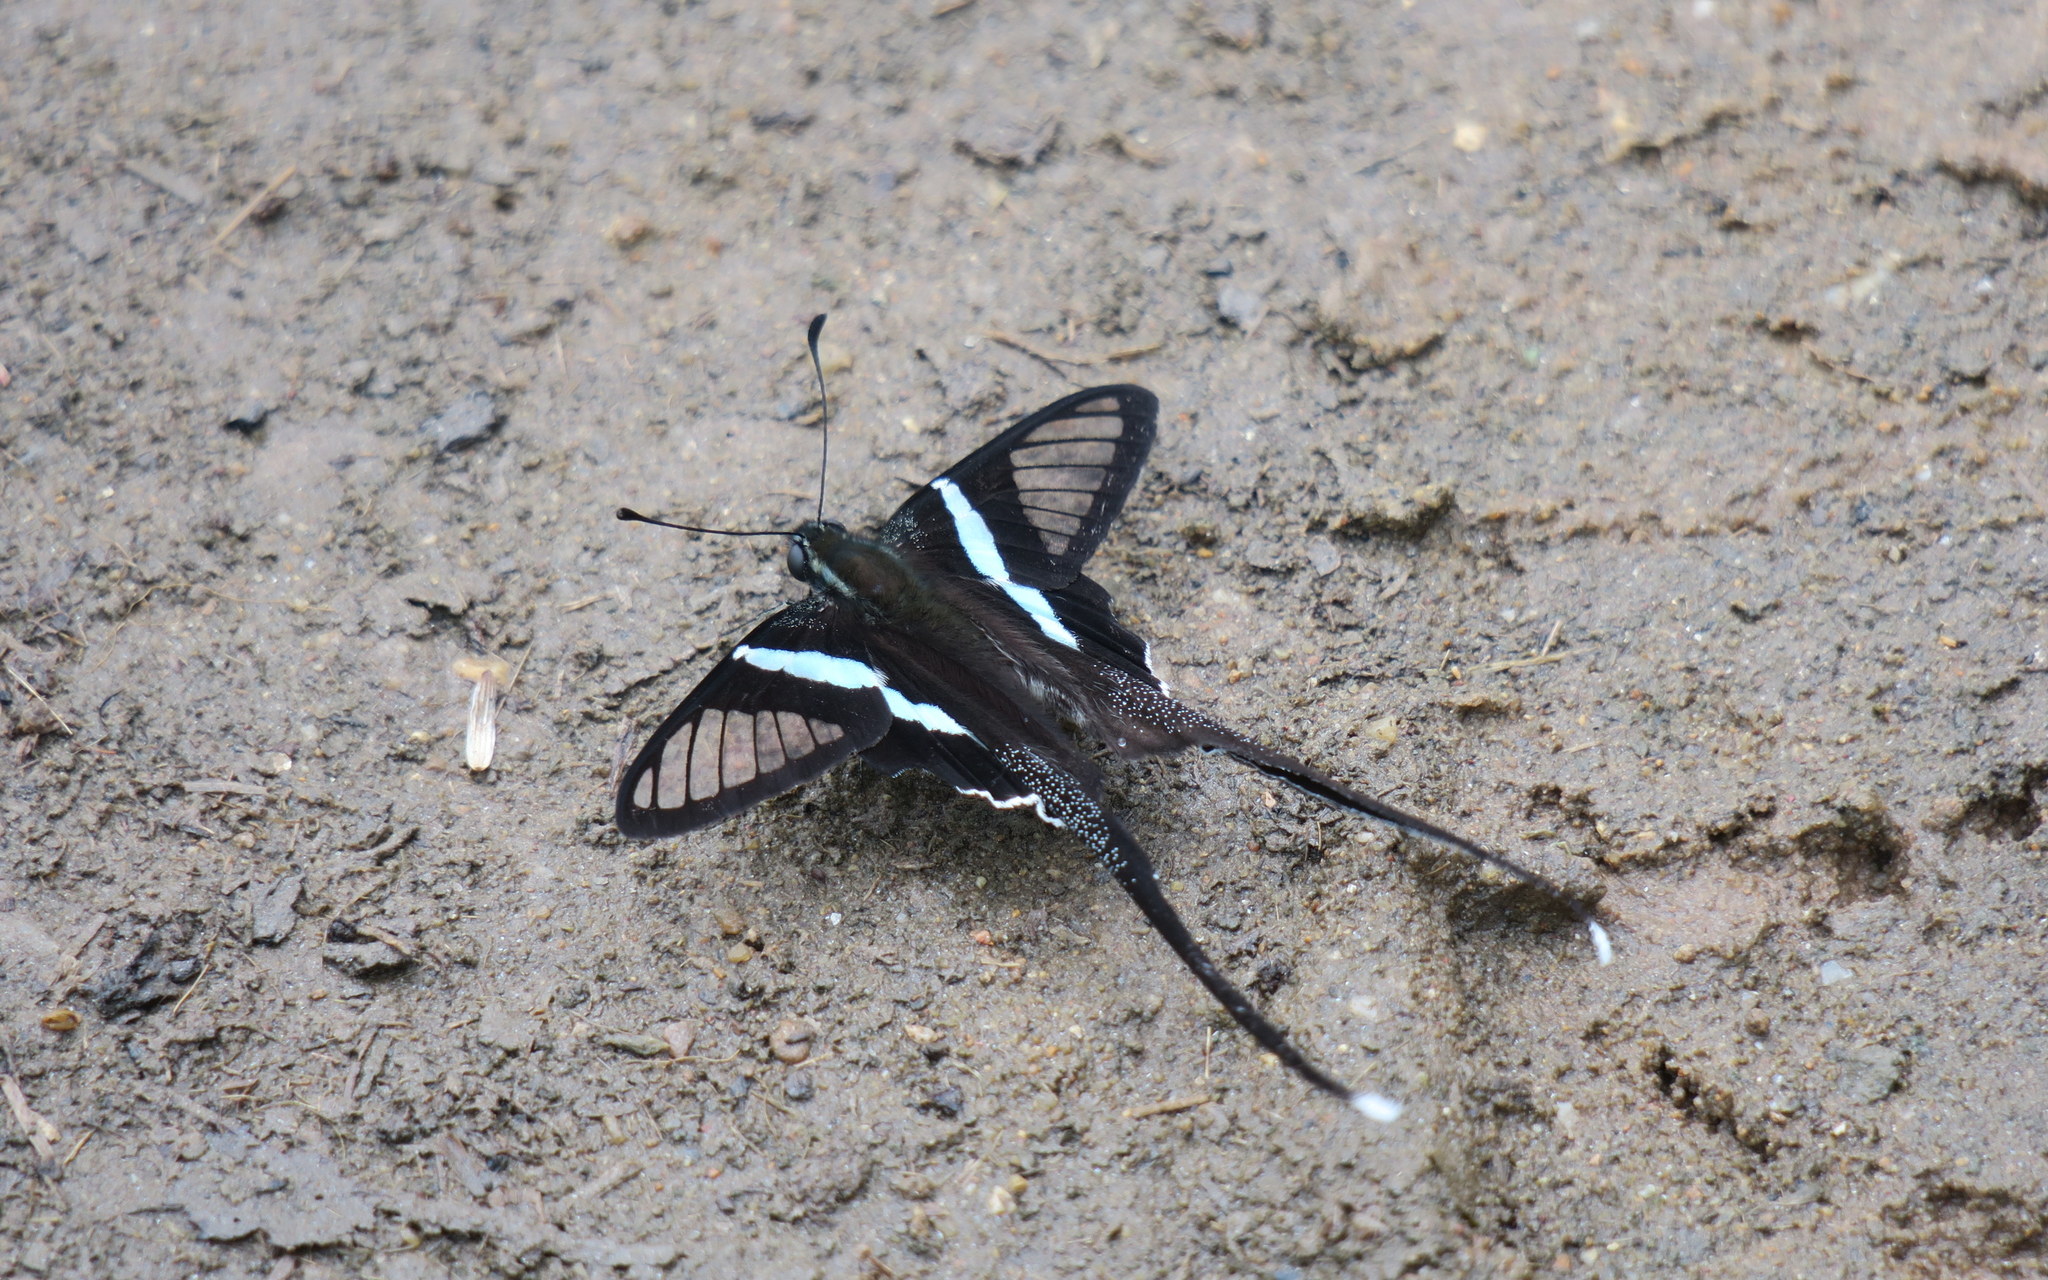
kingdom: Animalia
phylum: Arthropoda
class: Insecta
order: Lepidoptera
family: Papilionidae
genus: Lamproptera
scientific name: Lamproptera meges
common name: Green dragontail
